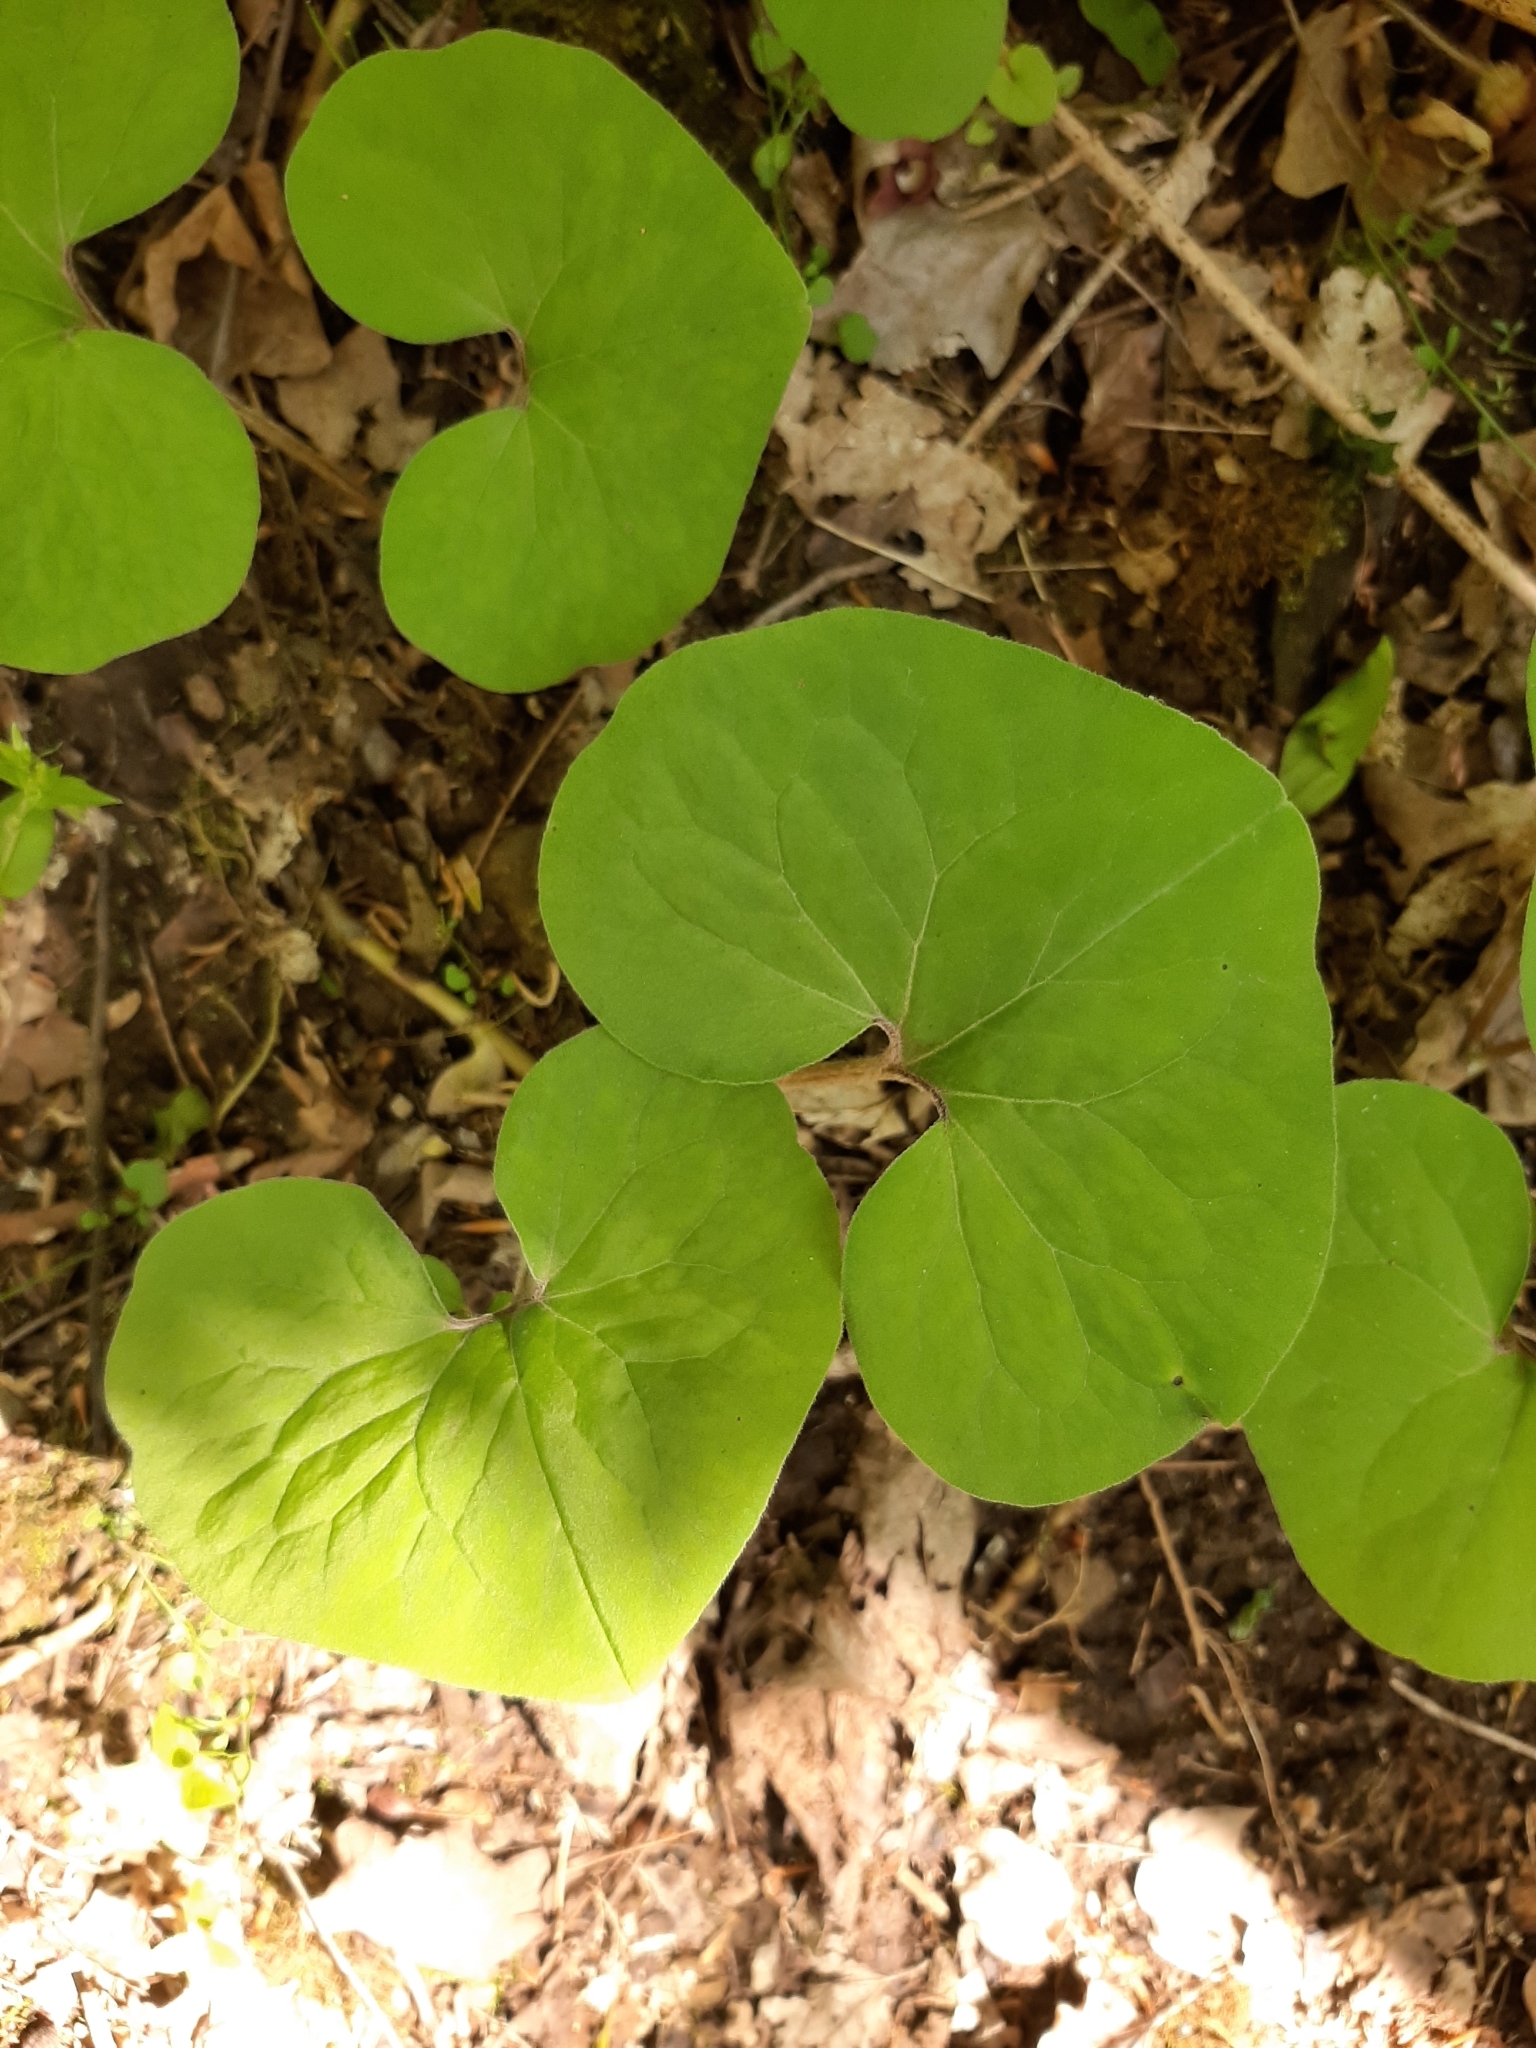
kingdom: Plantae
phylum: Tracheophyta
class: Magnoliopsida
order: Piperales
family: Aristolochiaceae
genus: Asarum
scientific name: Asarum canadense
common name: Wild ginger
